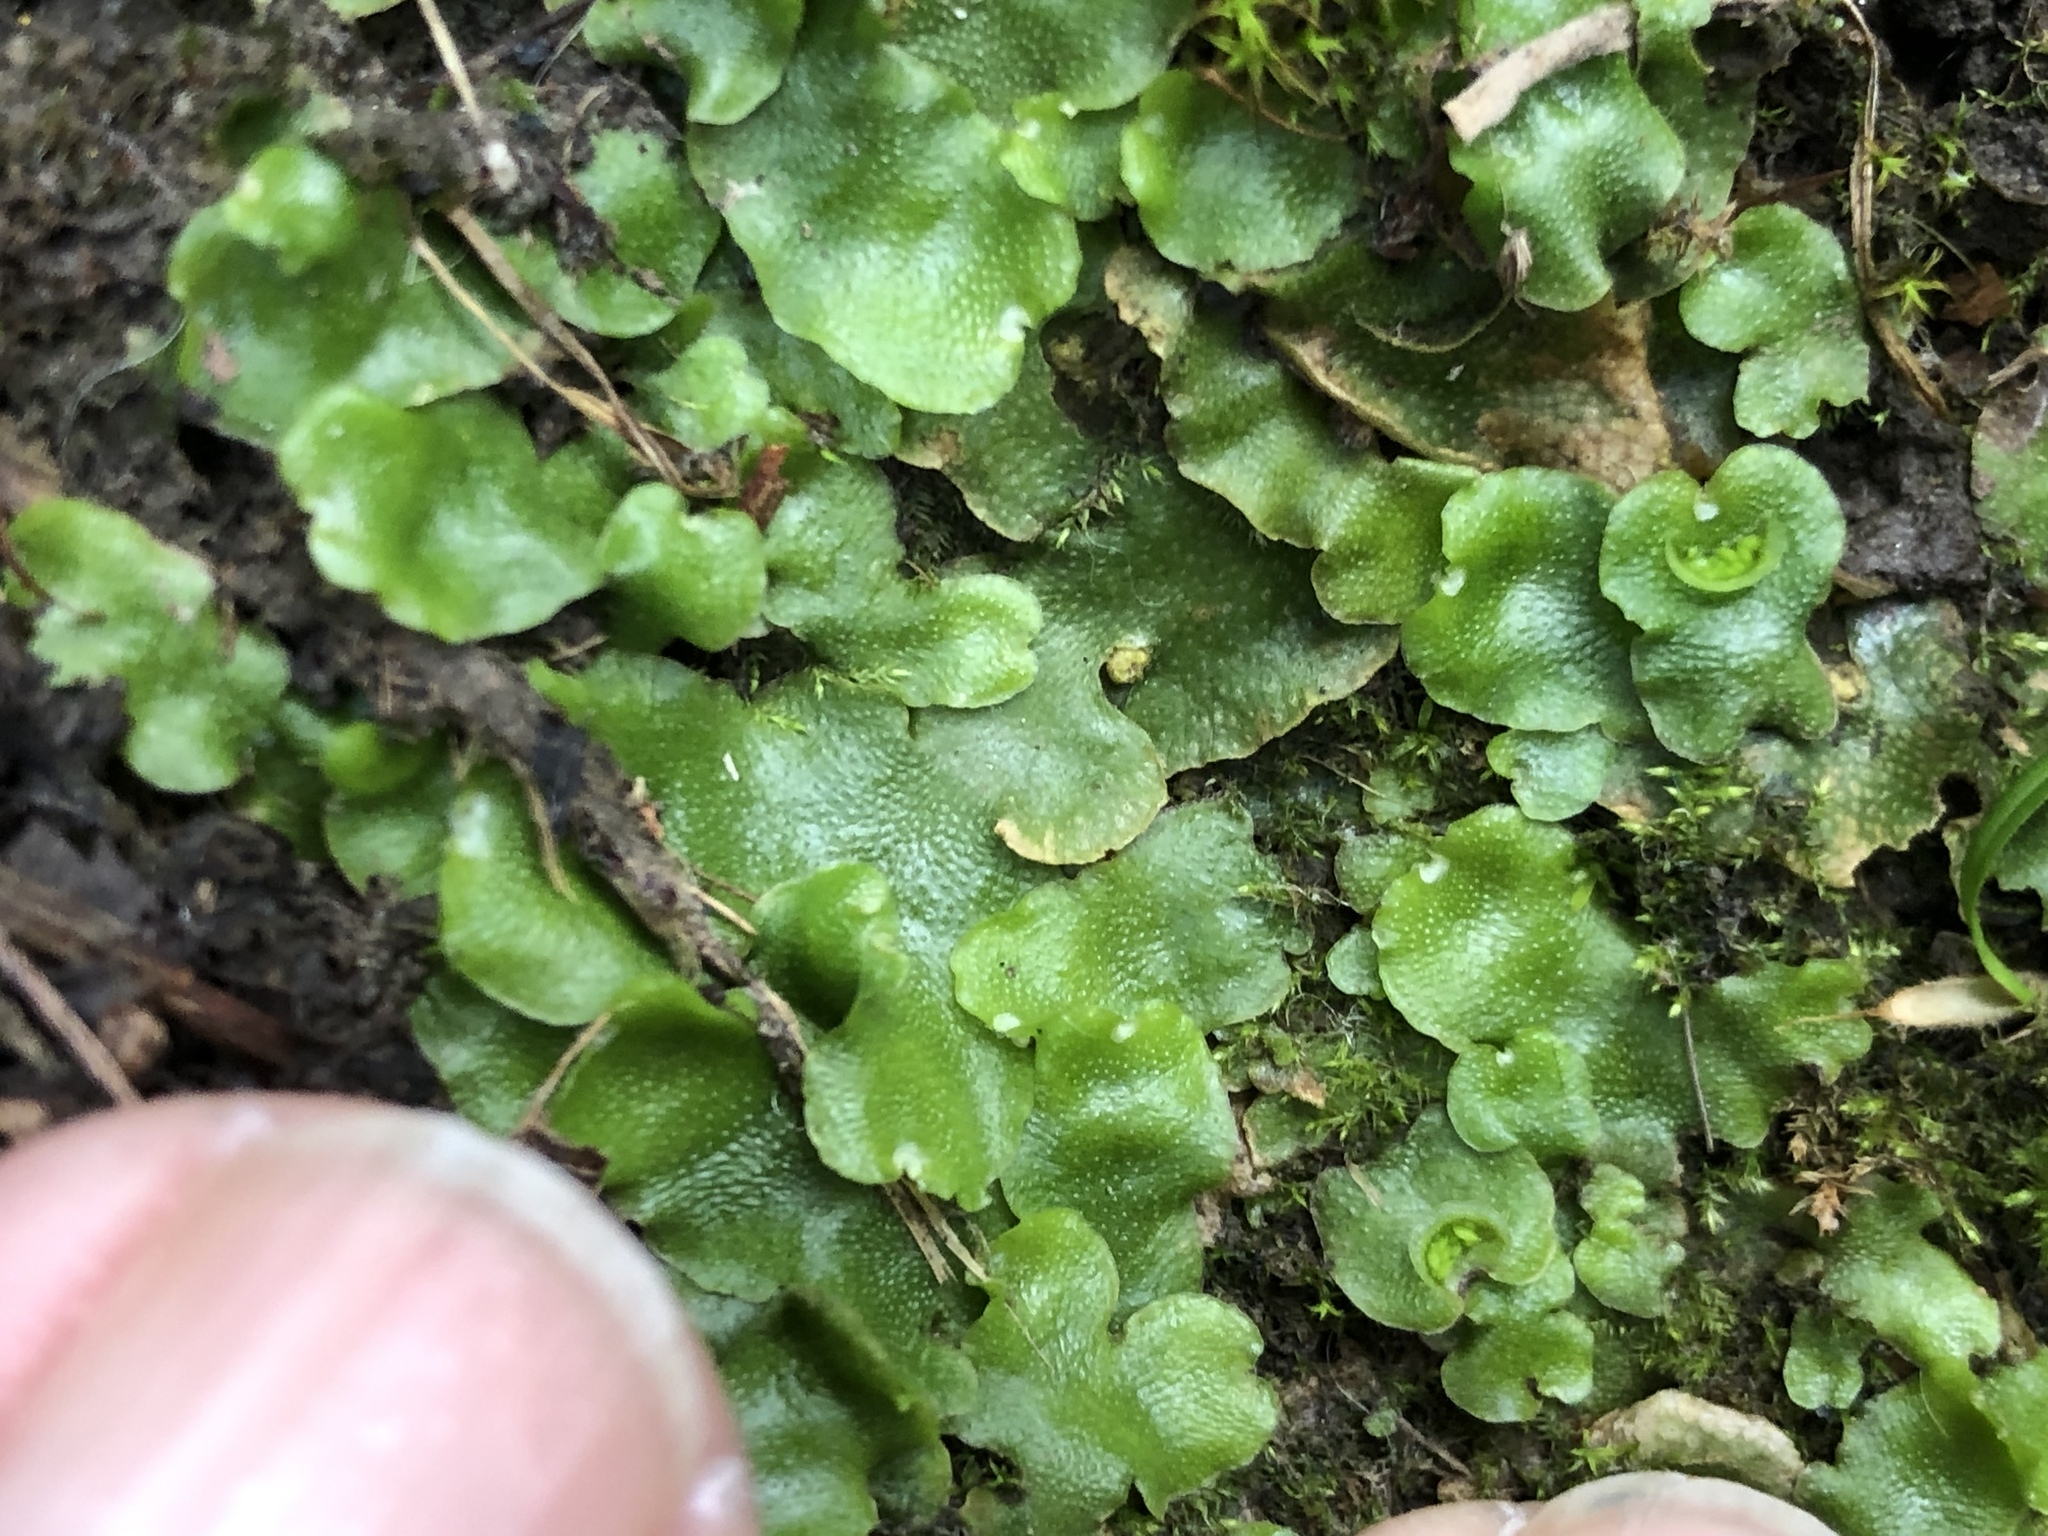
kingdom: Plantae
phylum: Marchantiophyta
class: Marchantiopsida
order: Lunulariales
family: Lunulariaceae
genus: Lunularia
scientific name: Lunularia cruciata
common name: Crescent-cup liverwort
